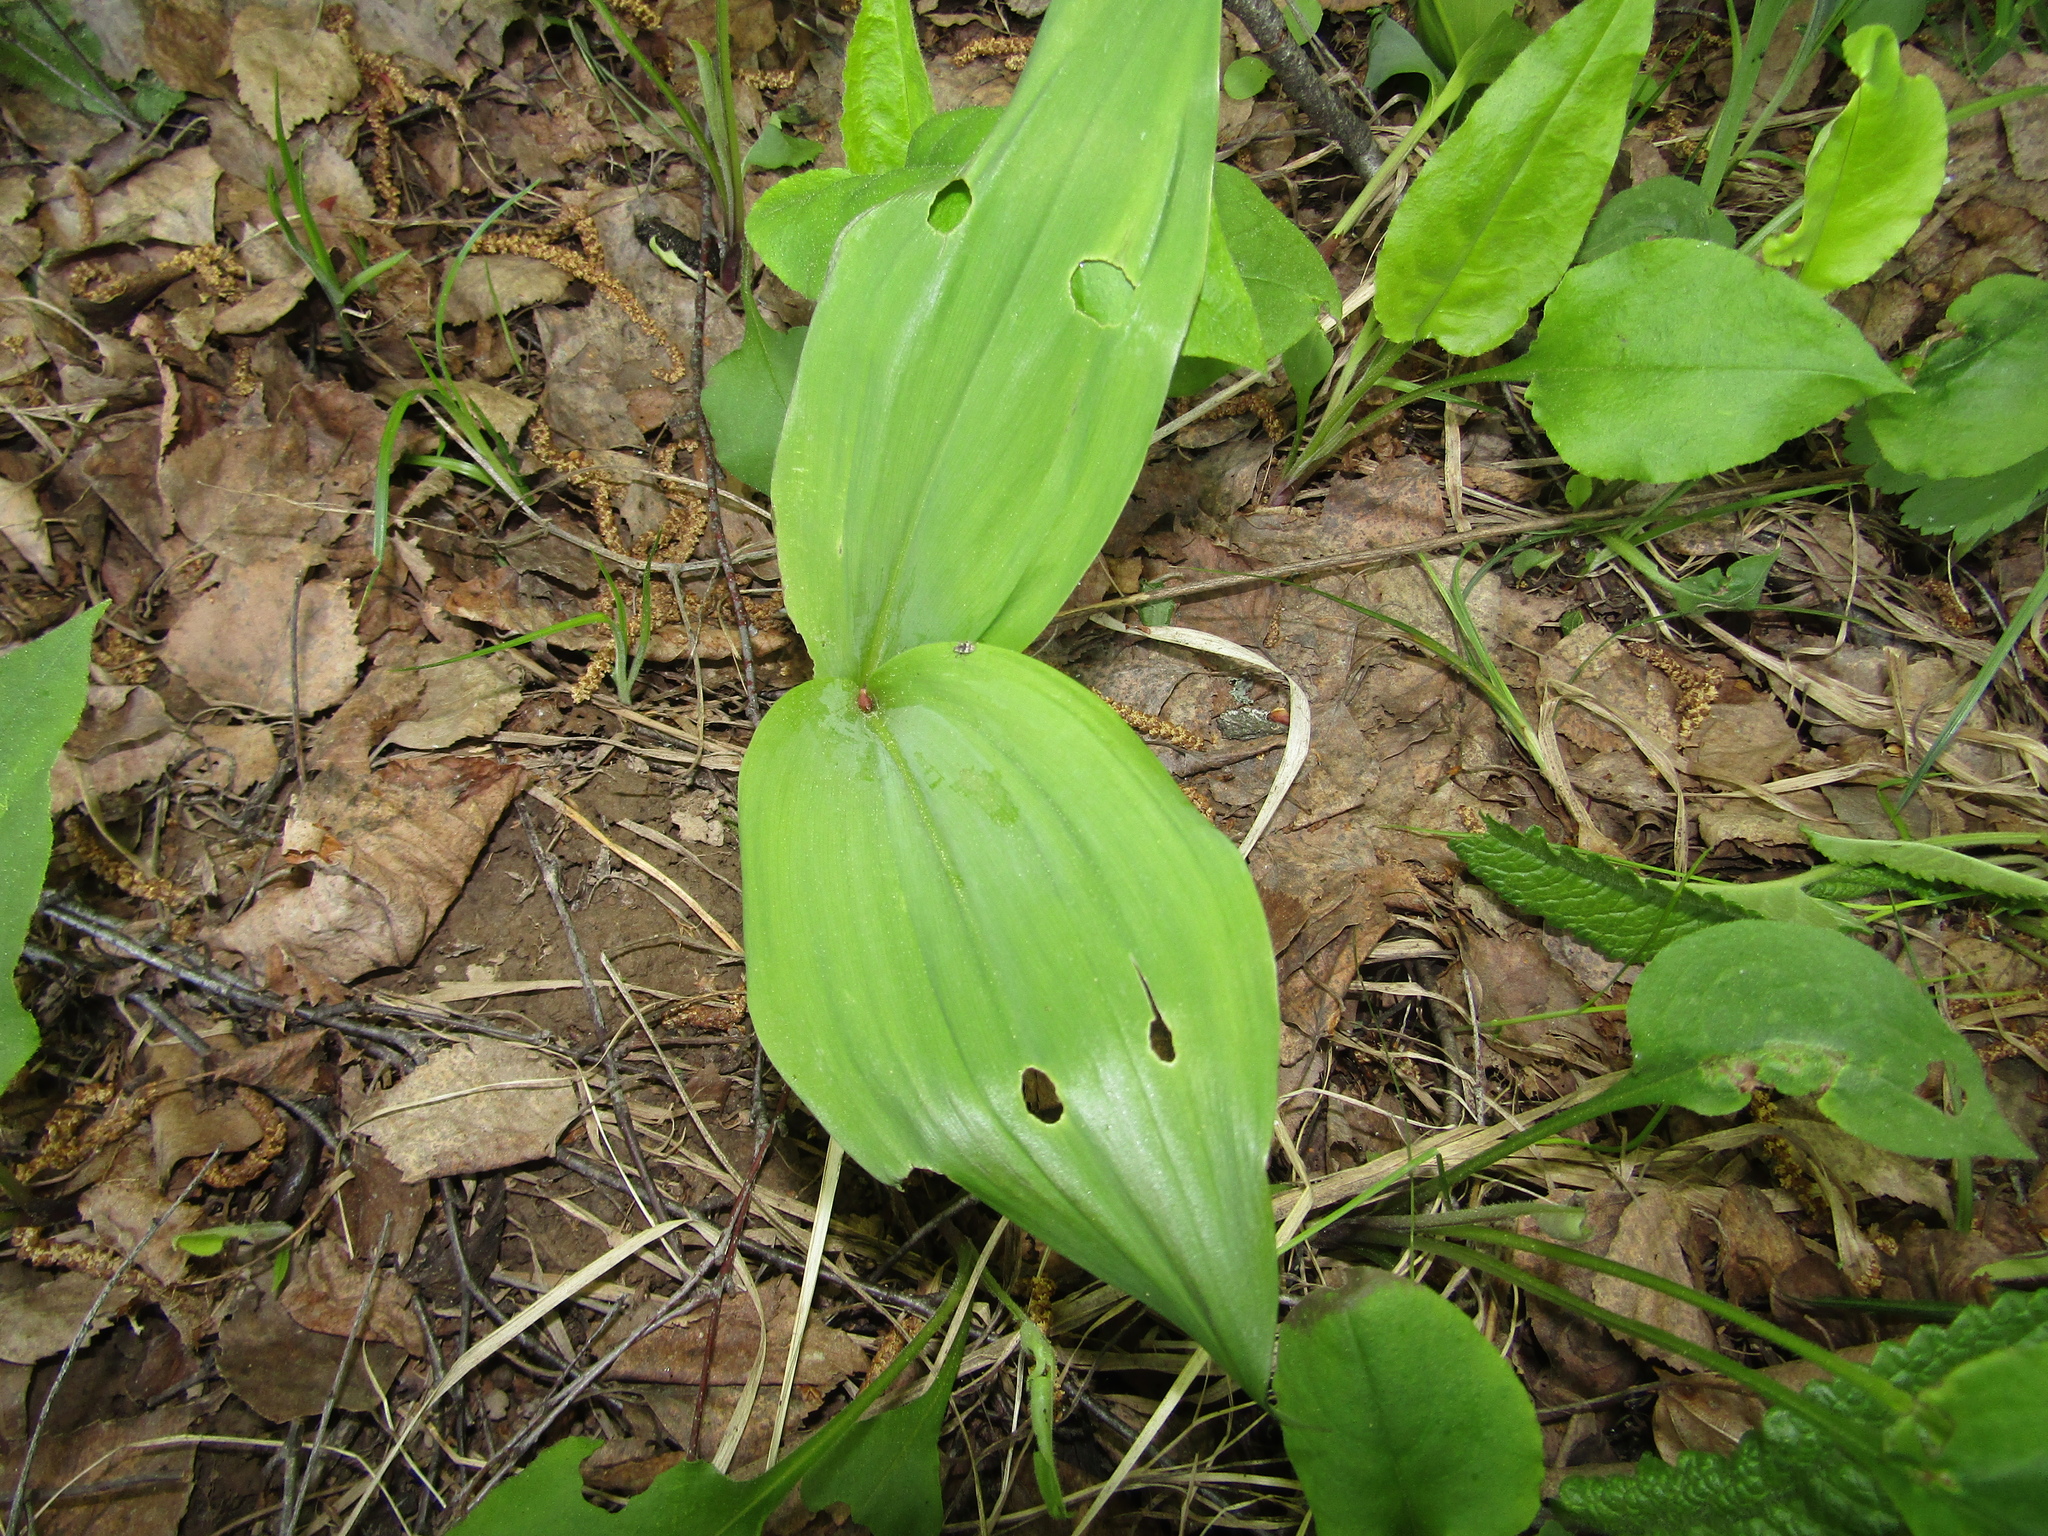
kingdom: Plantae
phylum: Tracheophyta
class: Liliopsida
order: Asparagales
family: Asparagaceae
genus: Convallaria
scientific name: Convallaria majalis
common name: Lily-of-the-valley
